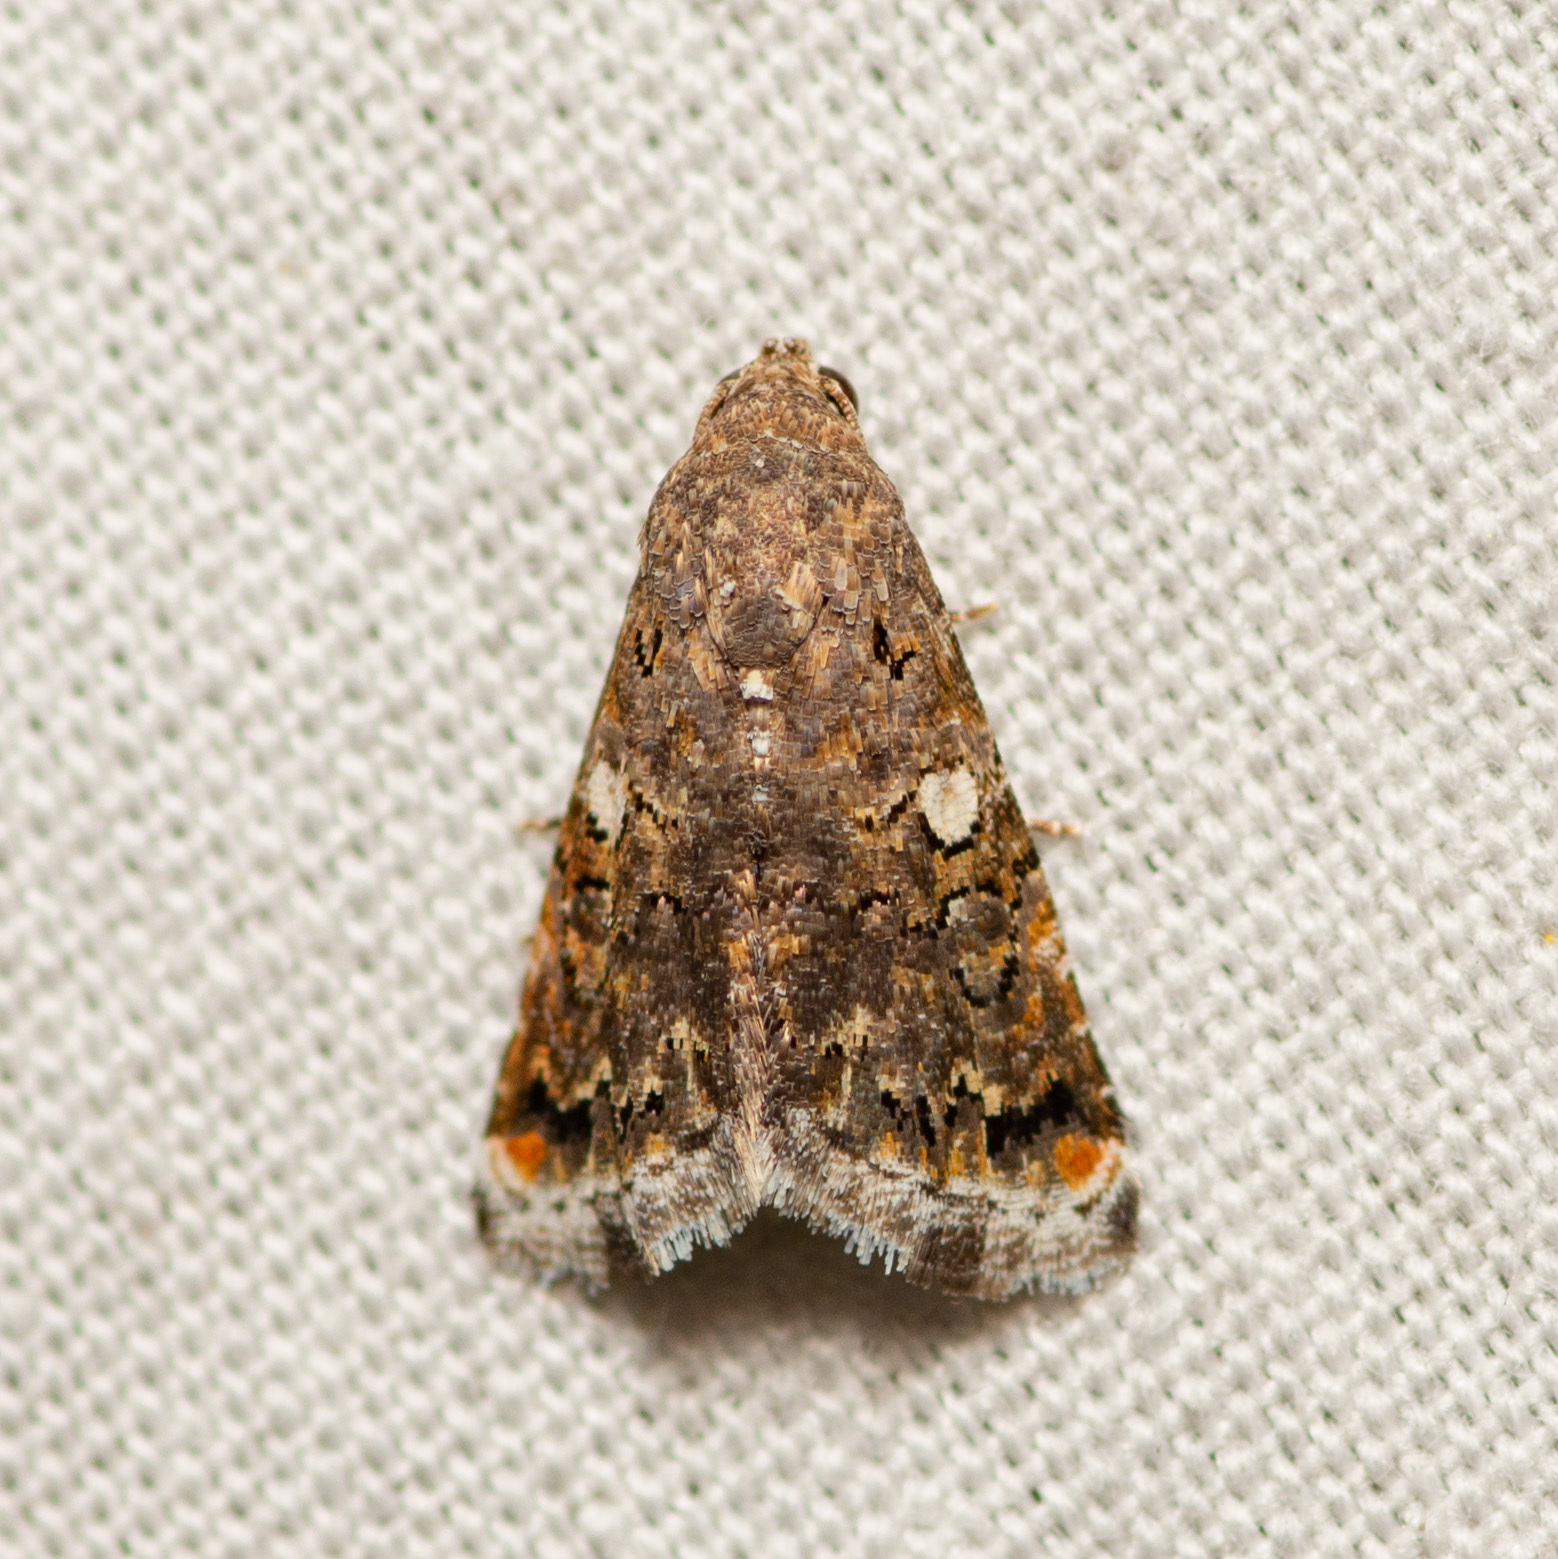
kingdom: Animalia
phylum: Arthropoda
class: Insecta
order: Lepidoptera
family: Noctuidae
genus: Tripudia
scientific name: Tripudia luxuriosa
